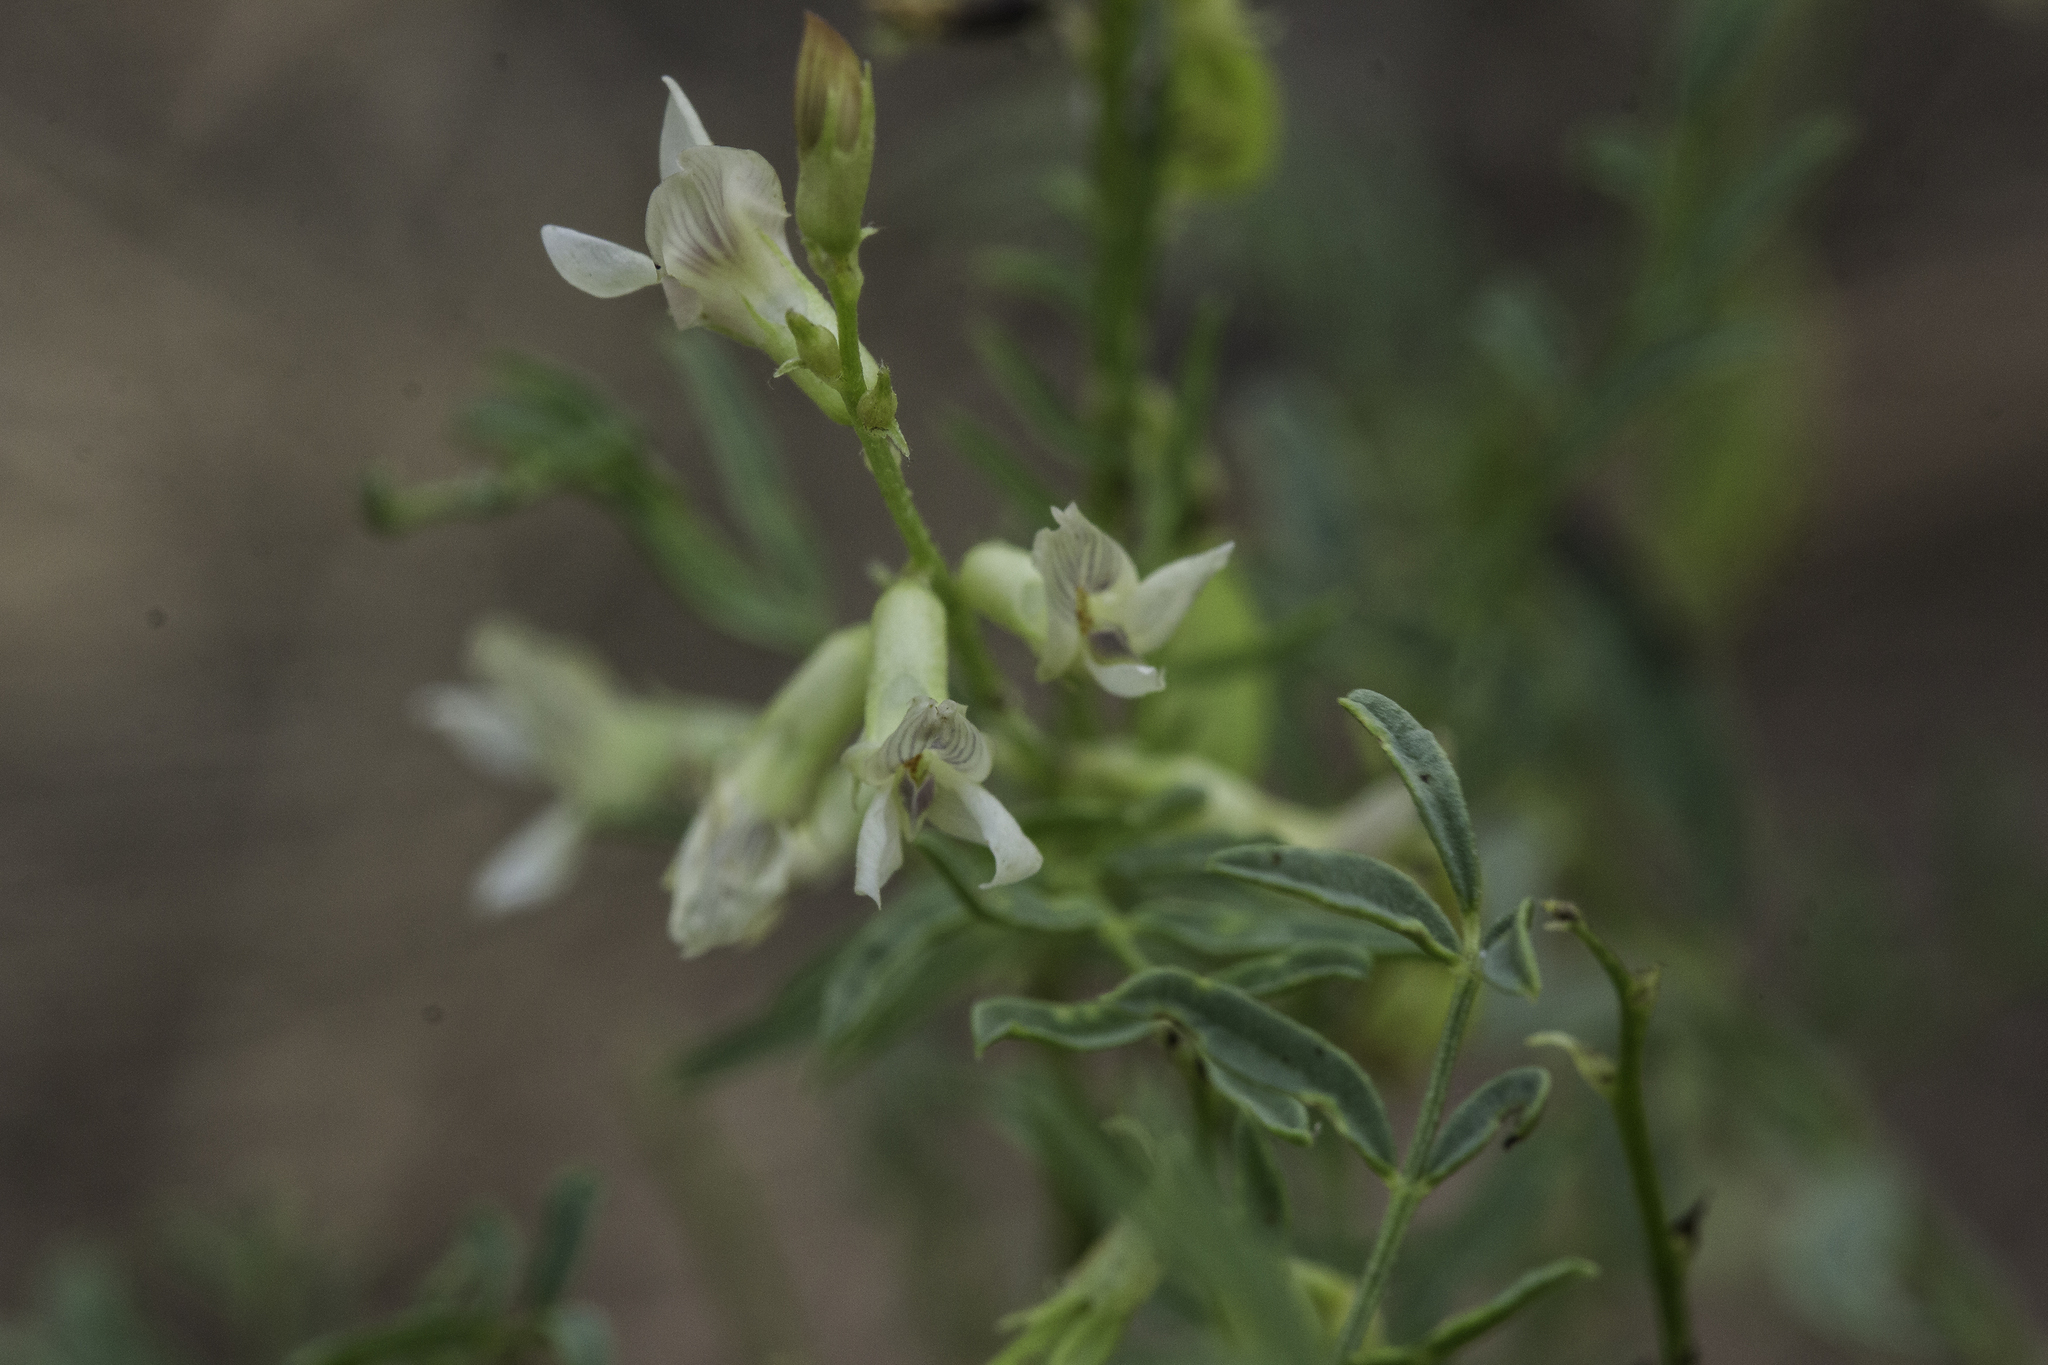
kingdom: Plantae
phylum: Tracheophyta
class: Magnoliopsida
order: Fabales
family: Fabaceae
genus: Astragalus
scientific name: Astragalus tenellus
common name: Pulse milk-vetch
